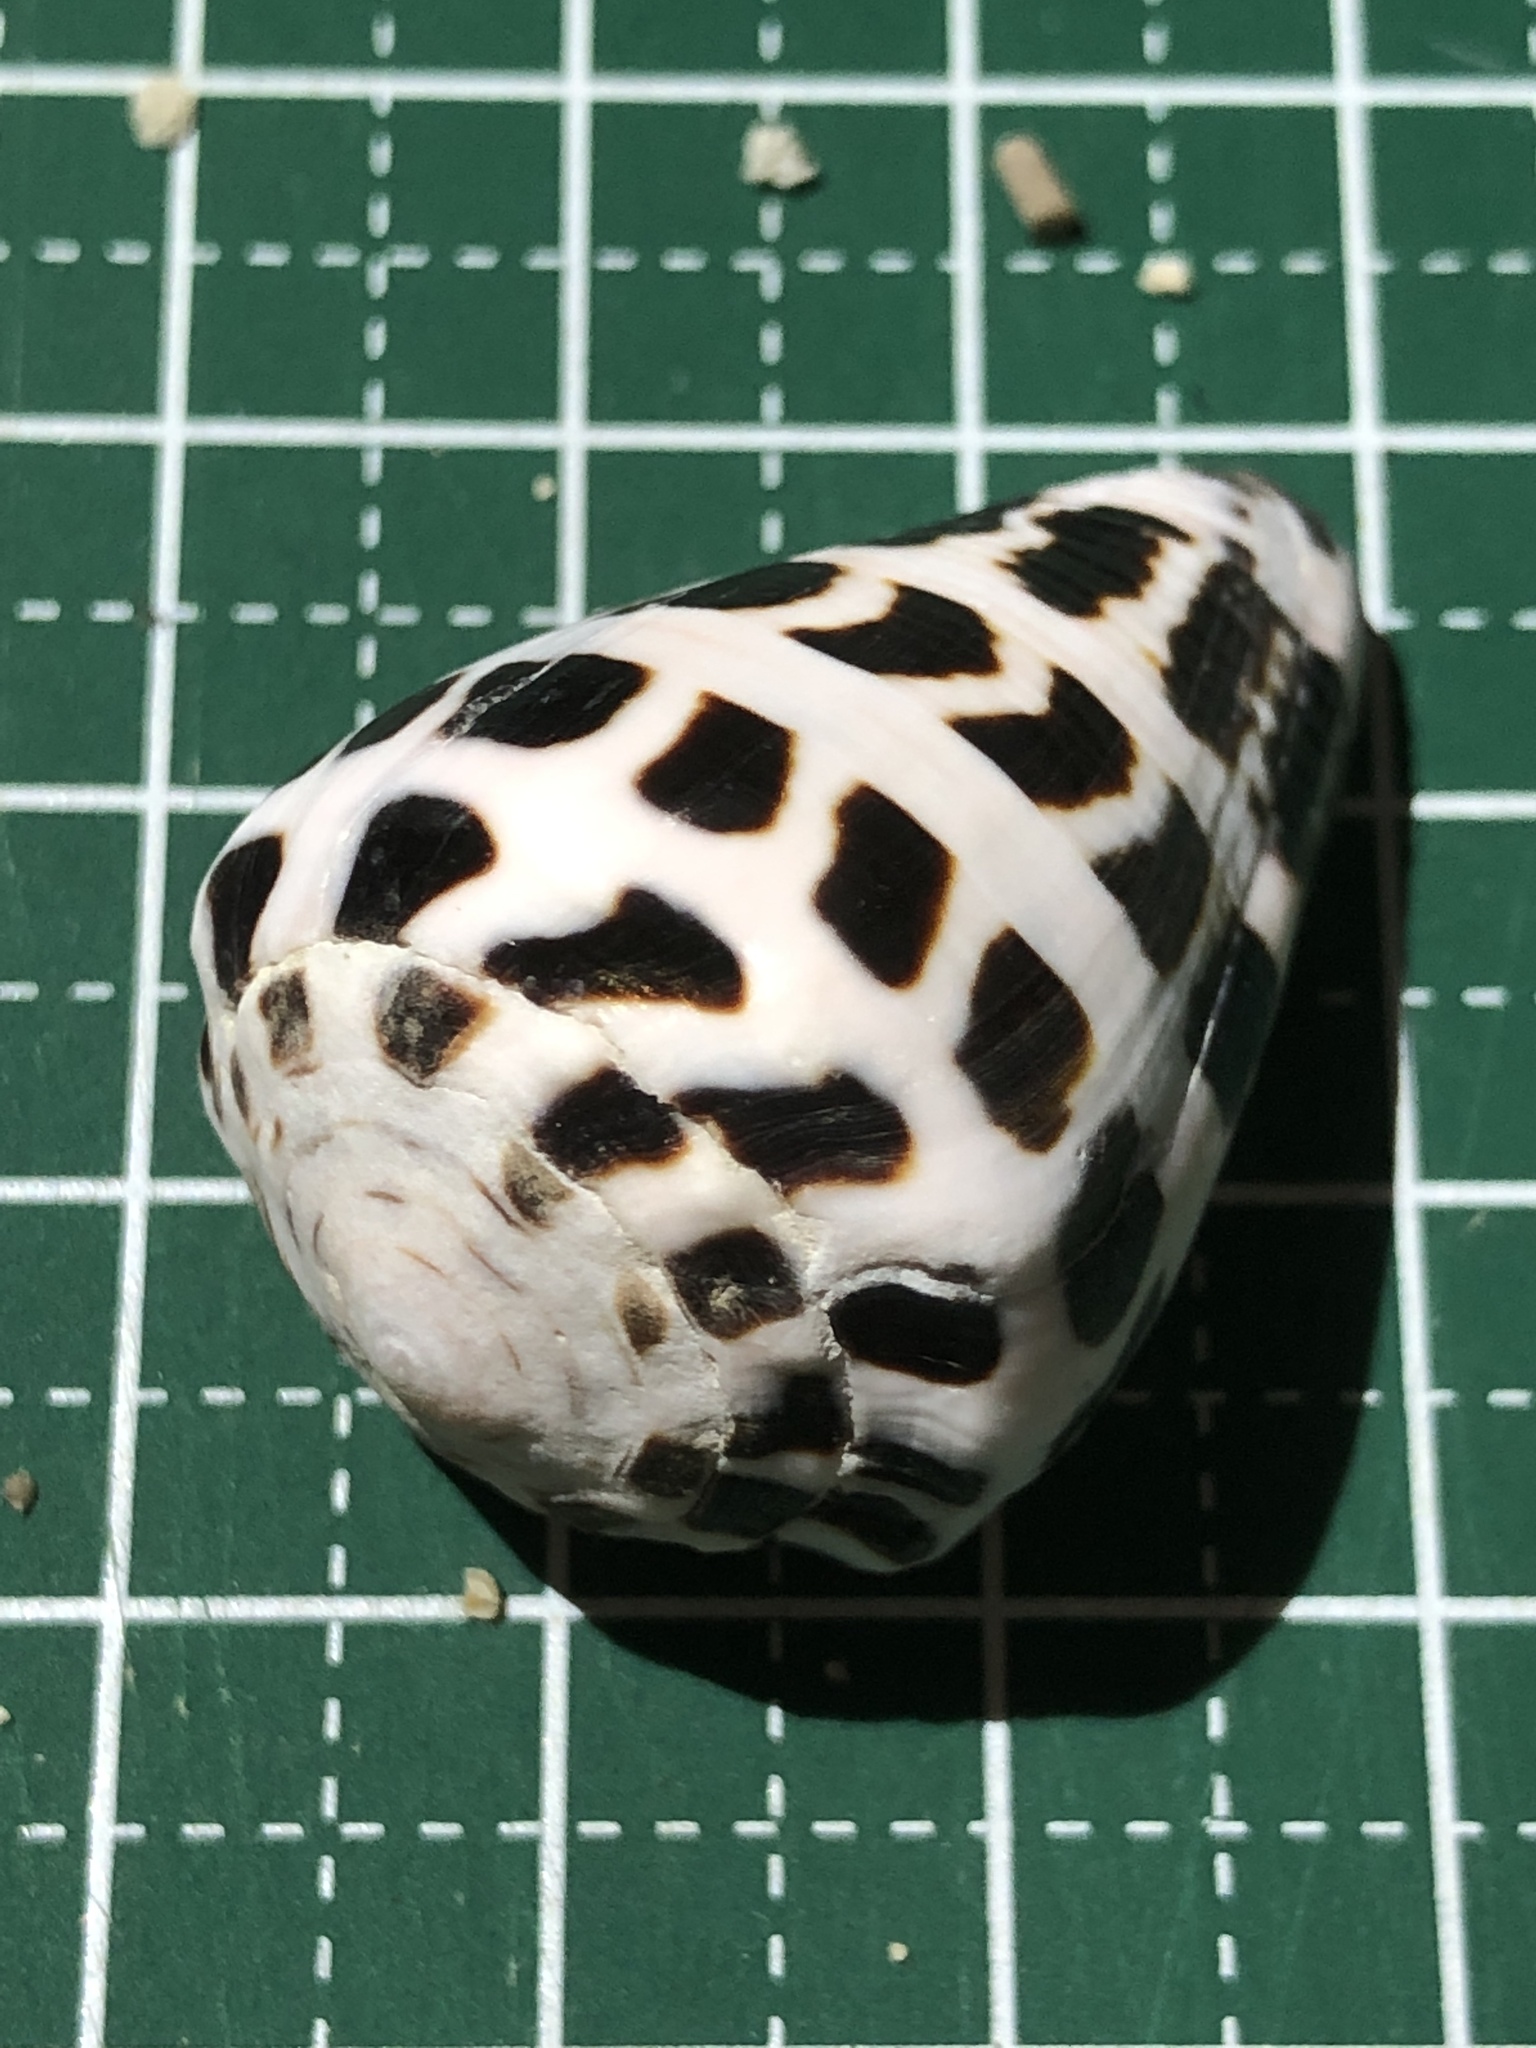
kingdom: Animalia
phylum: Mollusca
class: Gastropoda
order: Neogastropoda
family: Conidae
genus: Conus
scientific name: Conus ebraeus
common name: Hebrew cone
